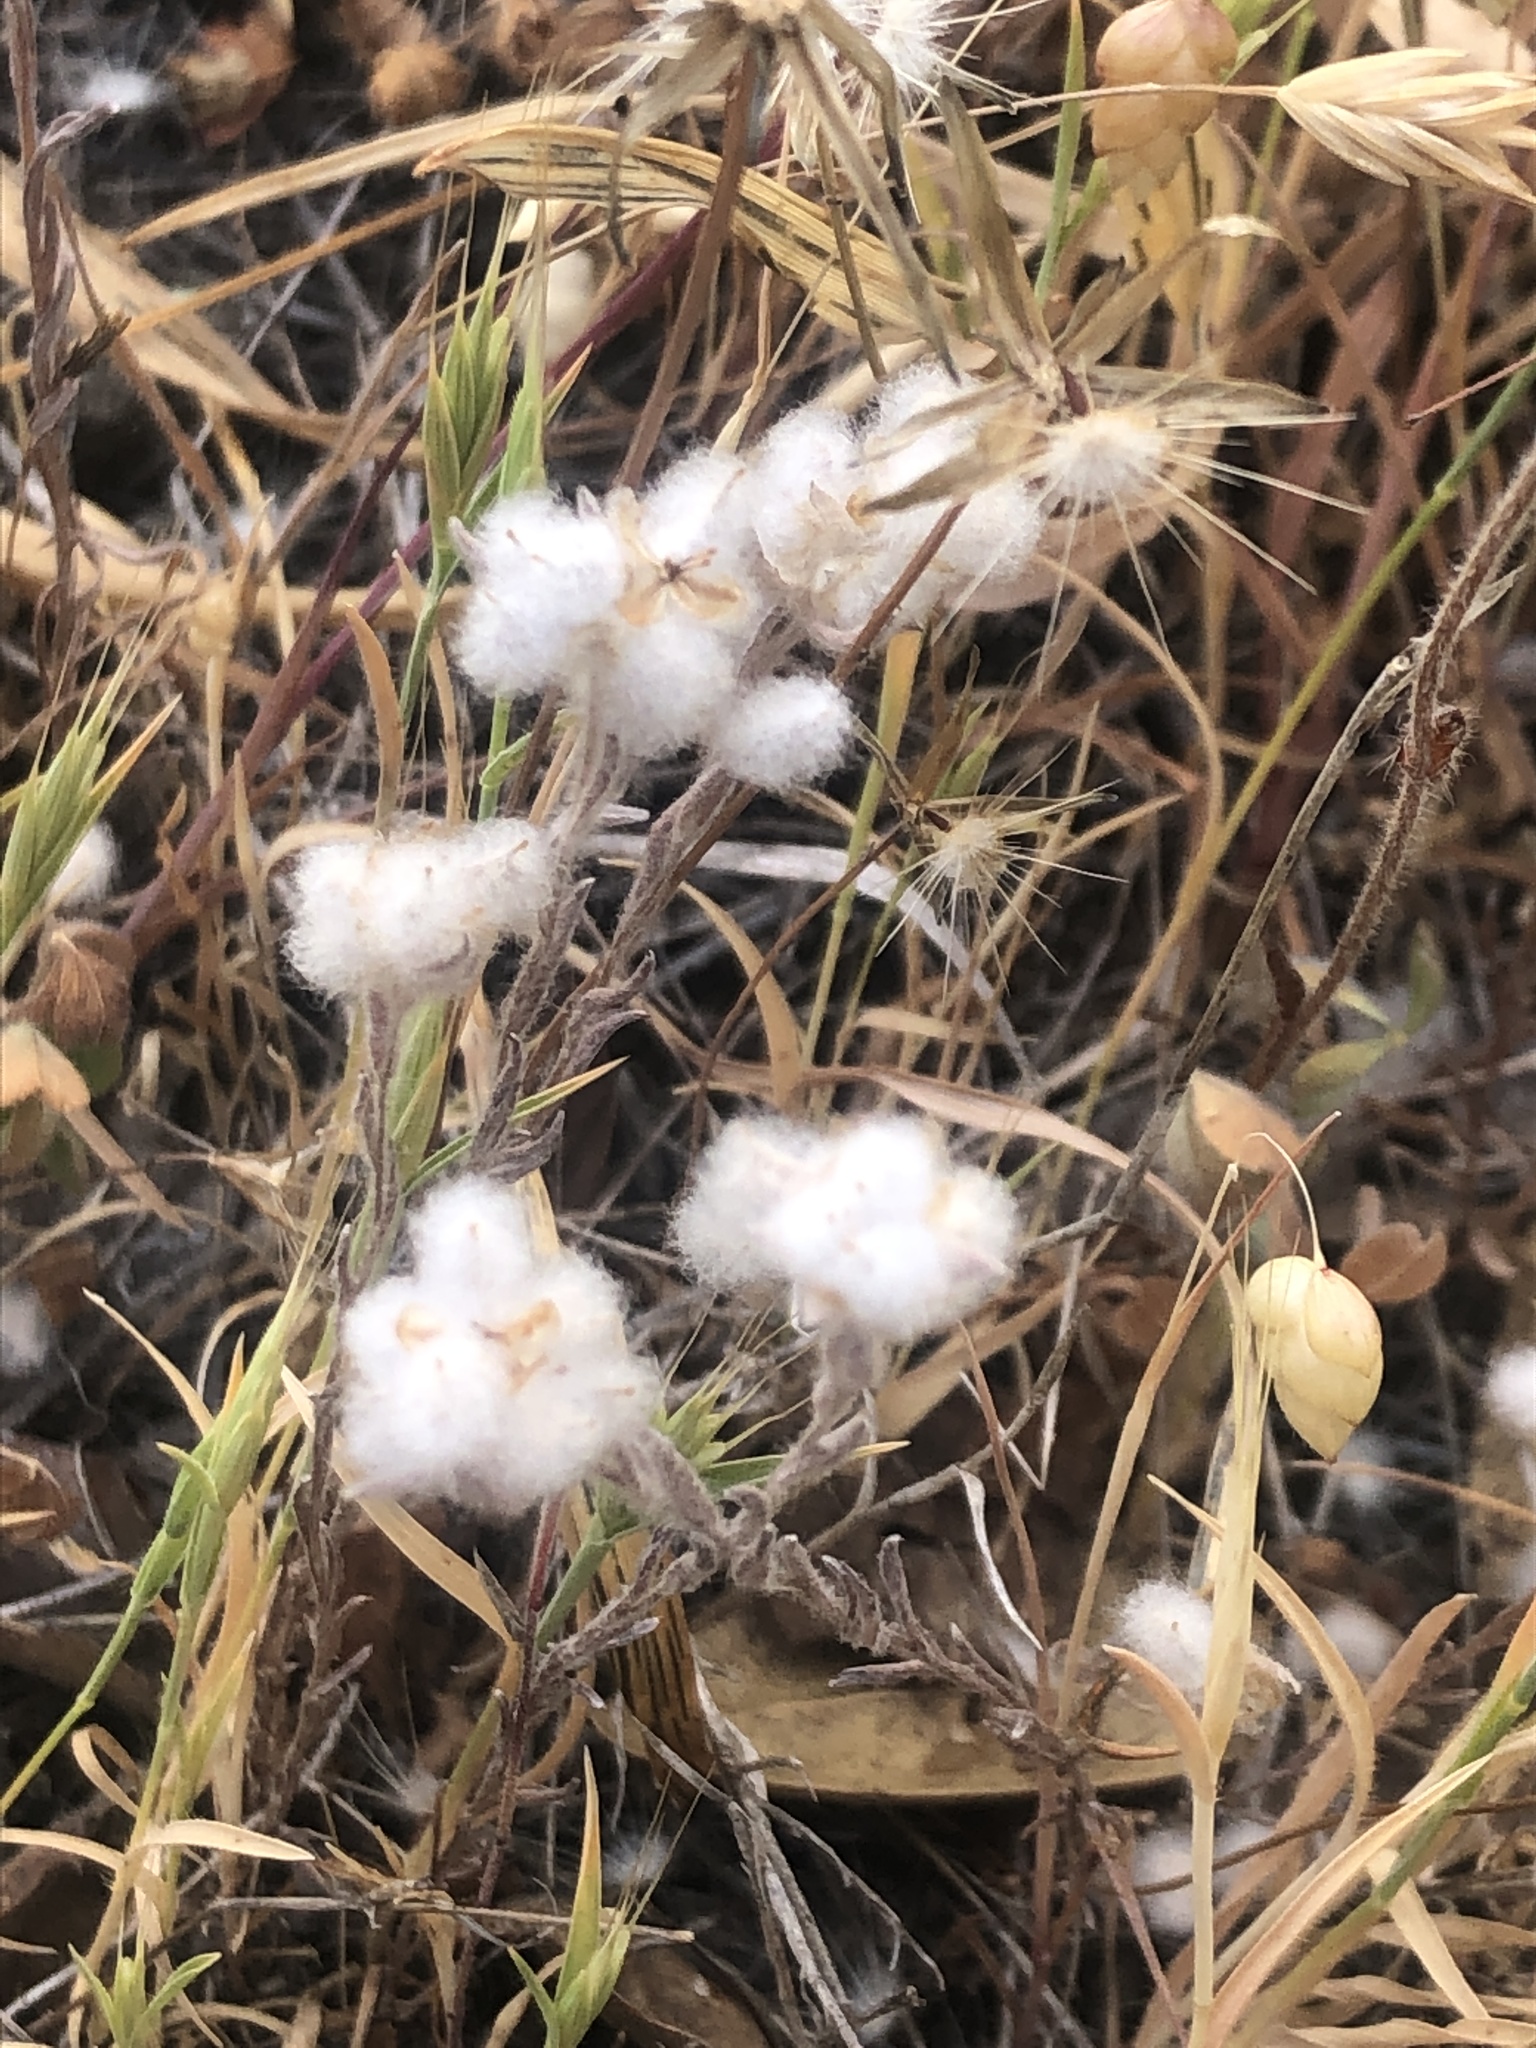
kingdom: Plantae
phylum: Tracheophyta
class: Magnoliopsida
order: Asterales
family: Asteraceae
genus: Bombycilaena
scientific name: Bombycilaena californica
